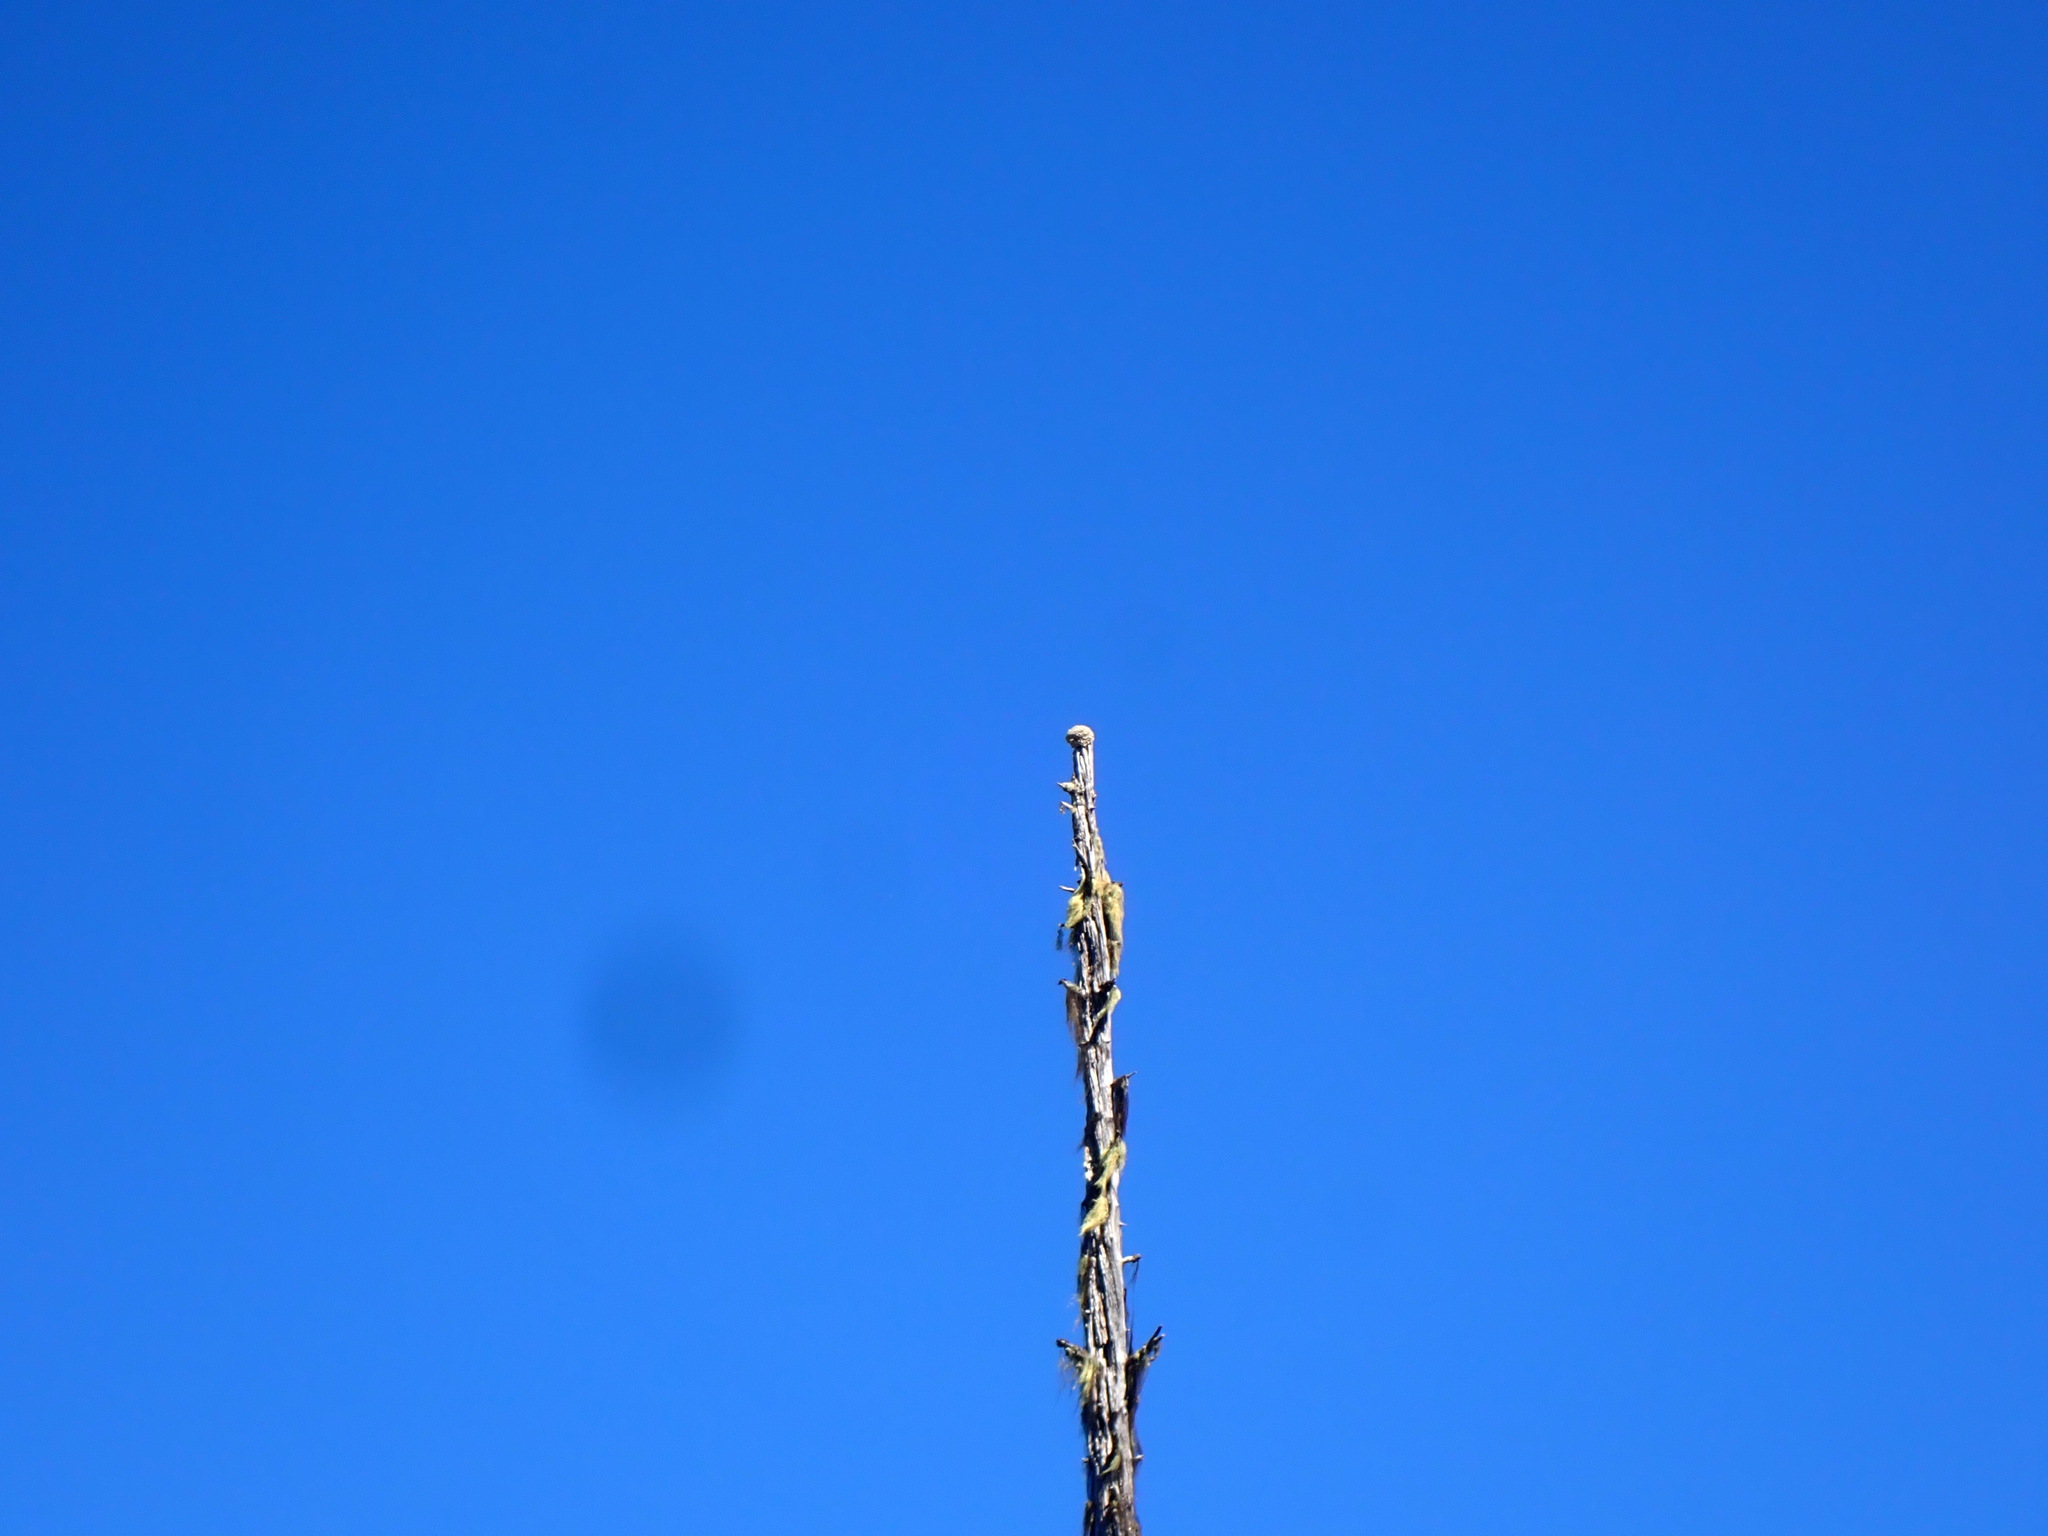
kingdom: Fungi
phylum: Ascomycota
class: Lecanoromycetes
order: Caliciales
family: Caliciaceae
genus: Acroscyphus
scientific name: Acroscyphus sphaerophoroides
